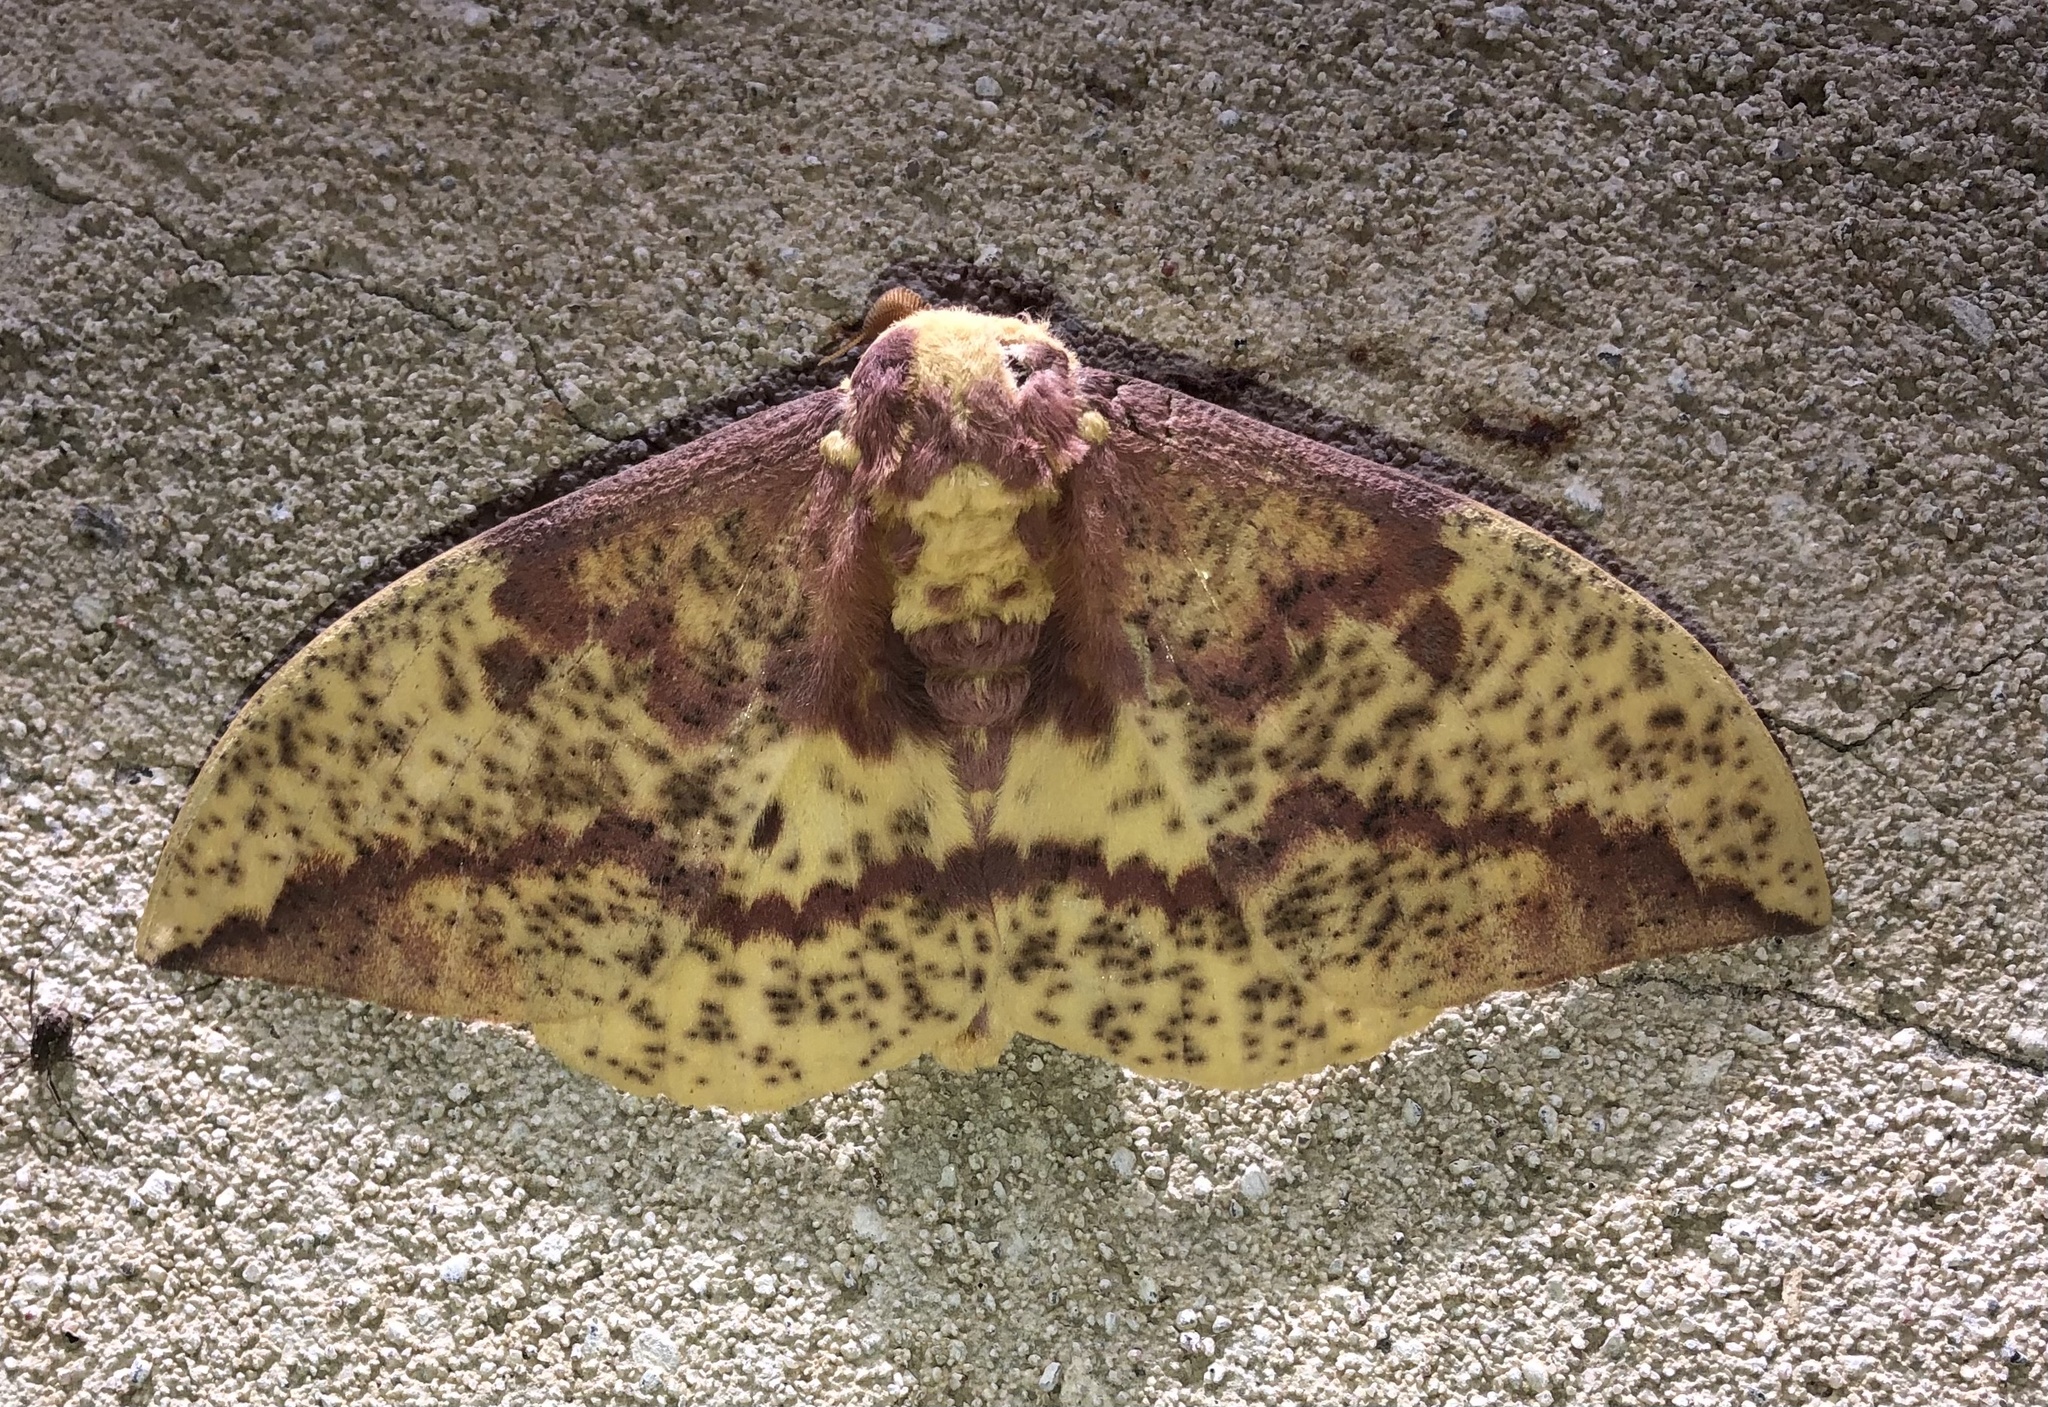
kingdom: Animalia
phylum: Arthropoda
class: Insecta
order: Lepidoptera
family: Saturniidae
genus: Eacles
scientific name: Eacles
